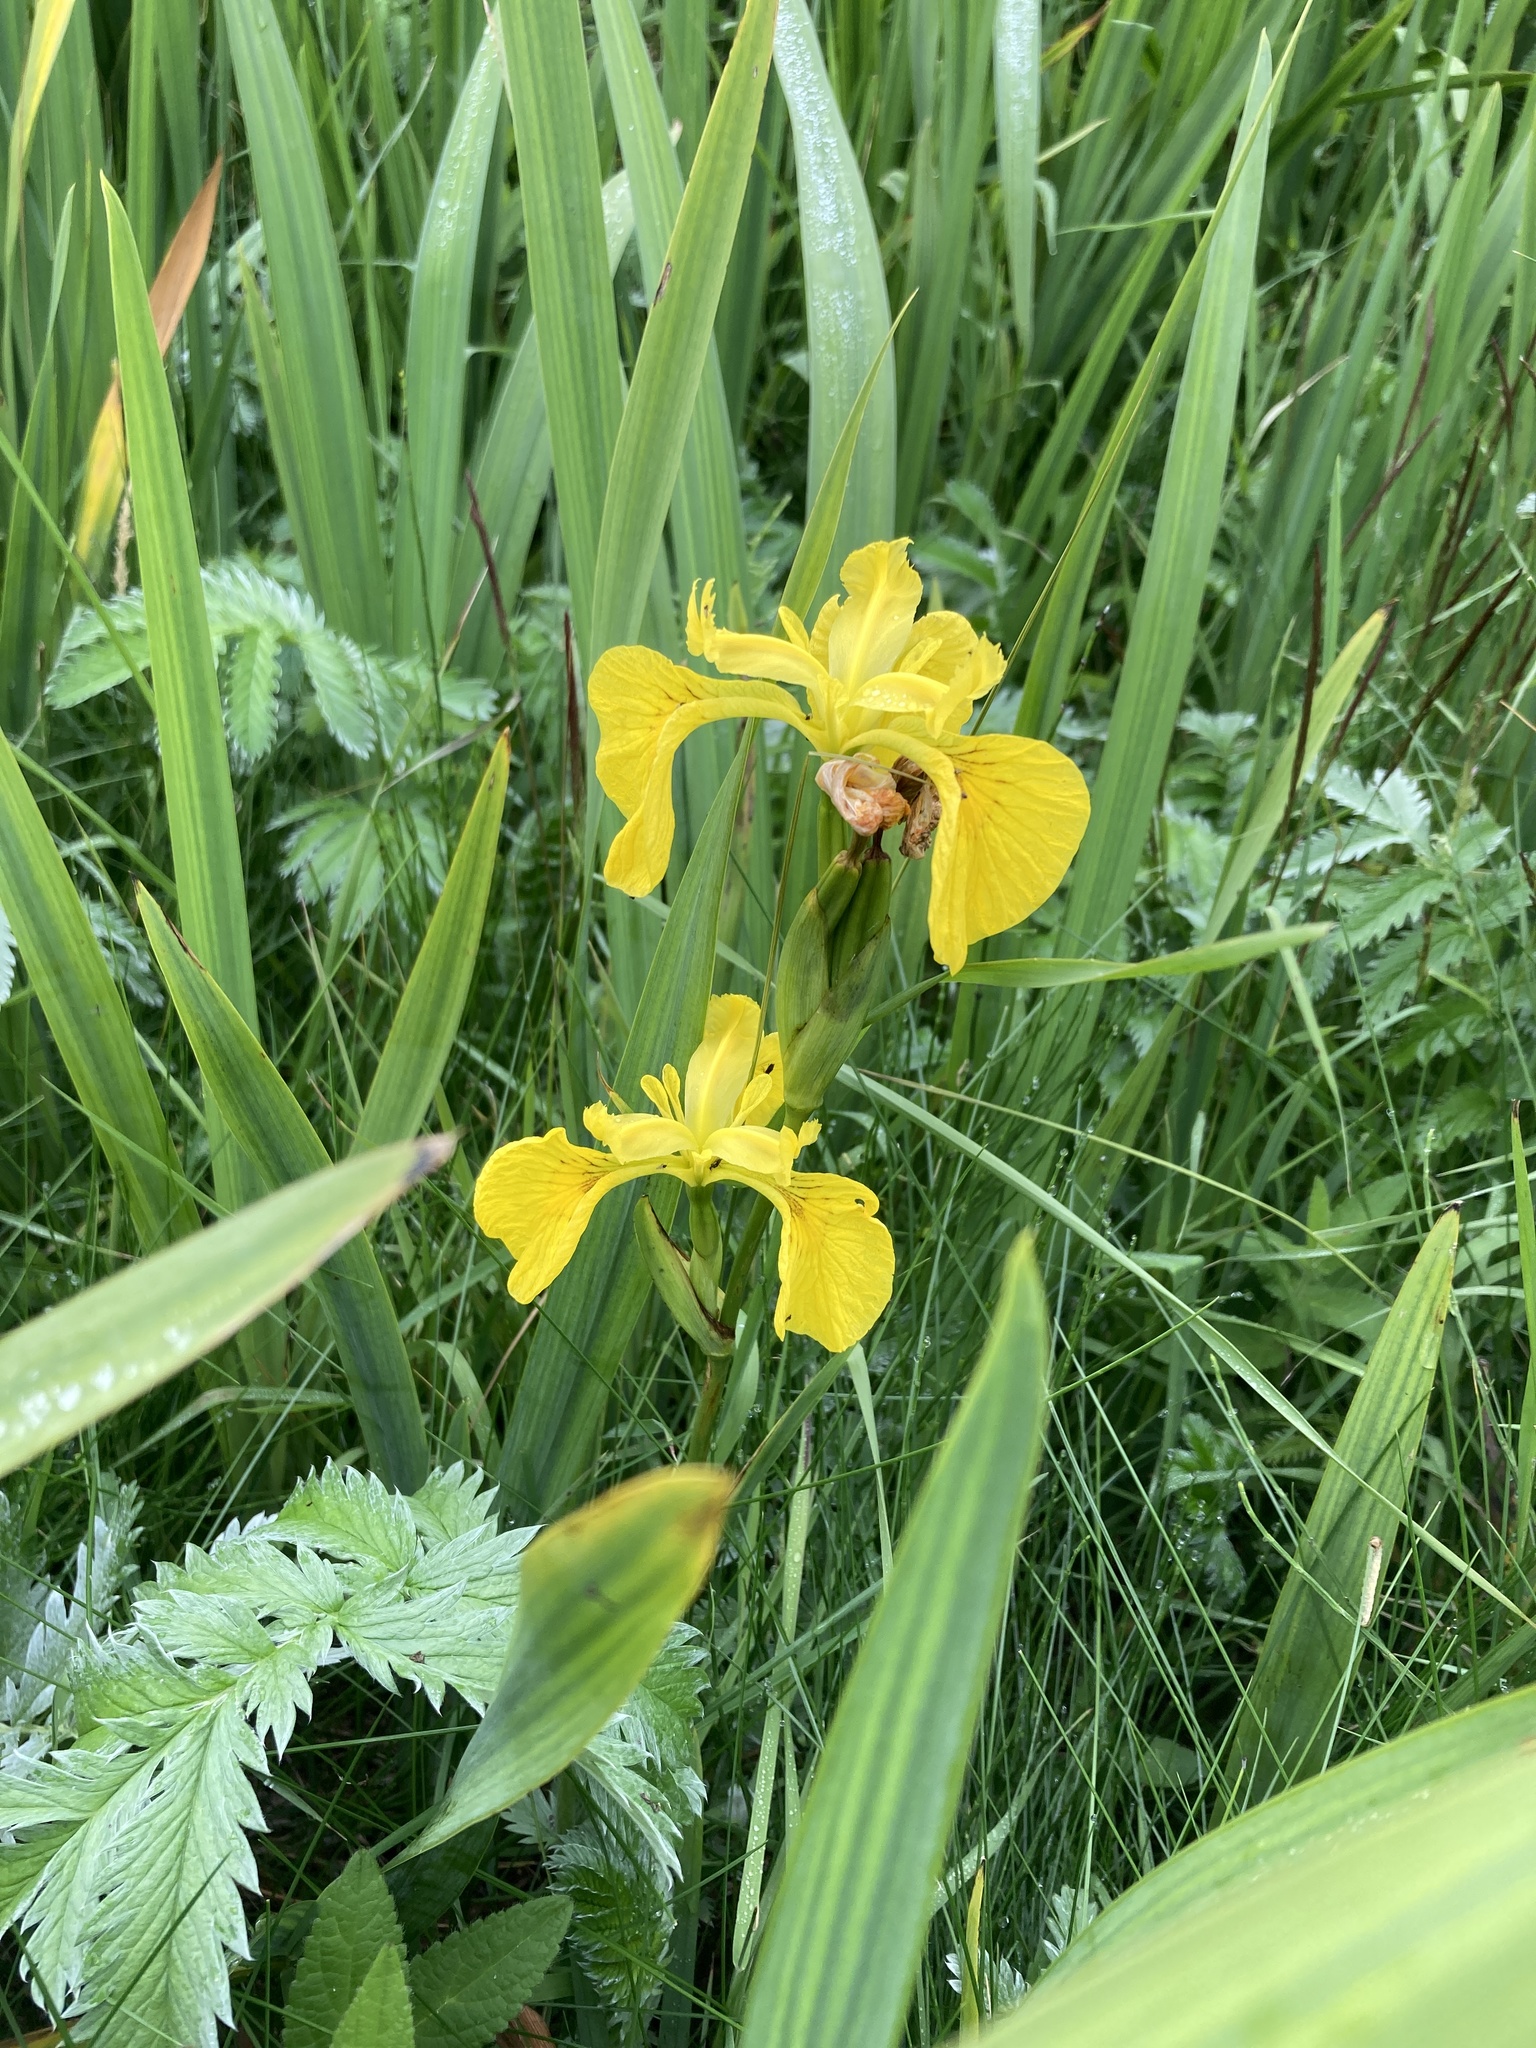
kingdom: Plantae
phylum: Tracheophyta
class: Liliopsida
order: Asparagales
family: Iridaceae
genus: Iris
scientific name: Iris pseudacorus
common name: Yellow flag
